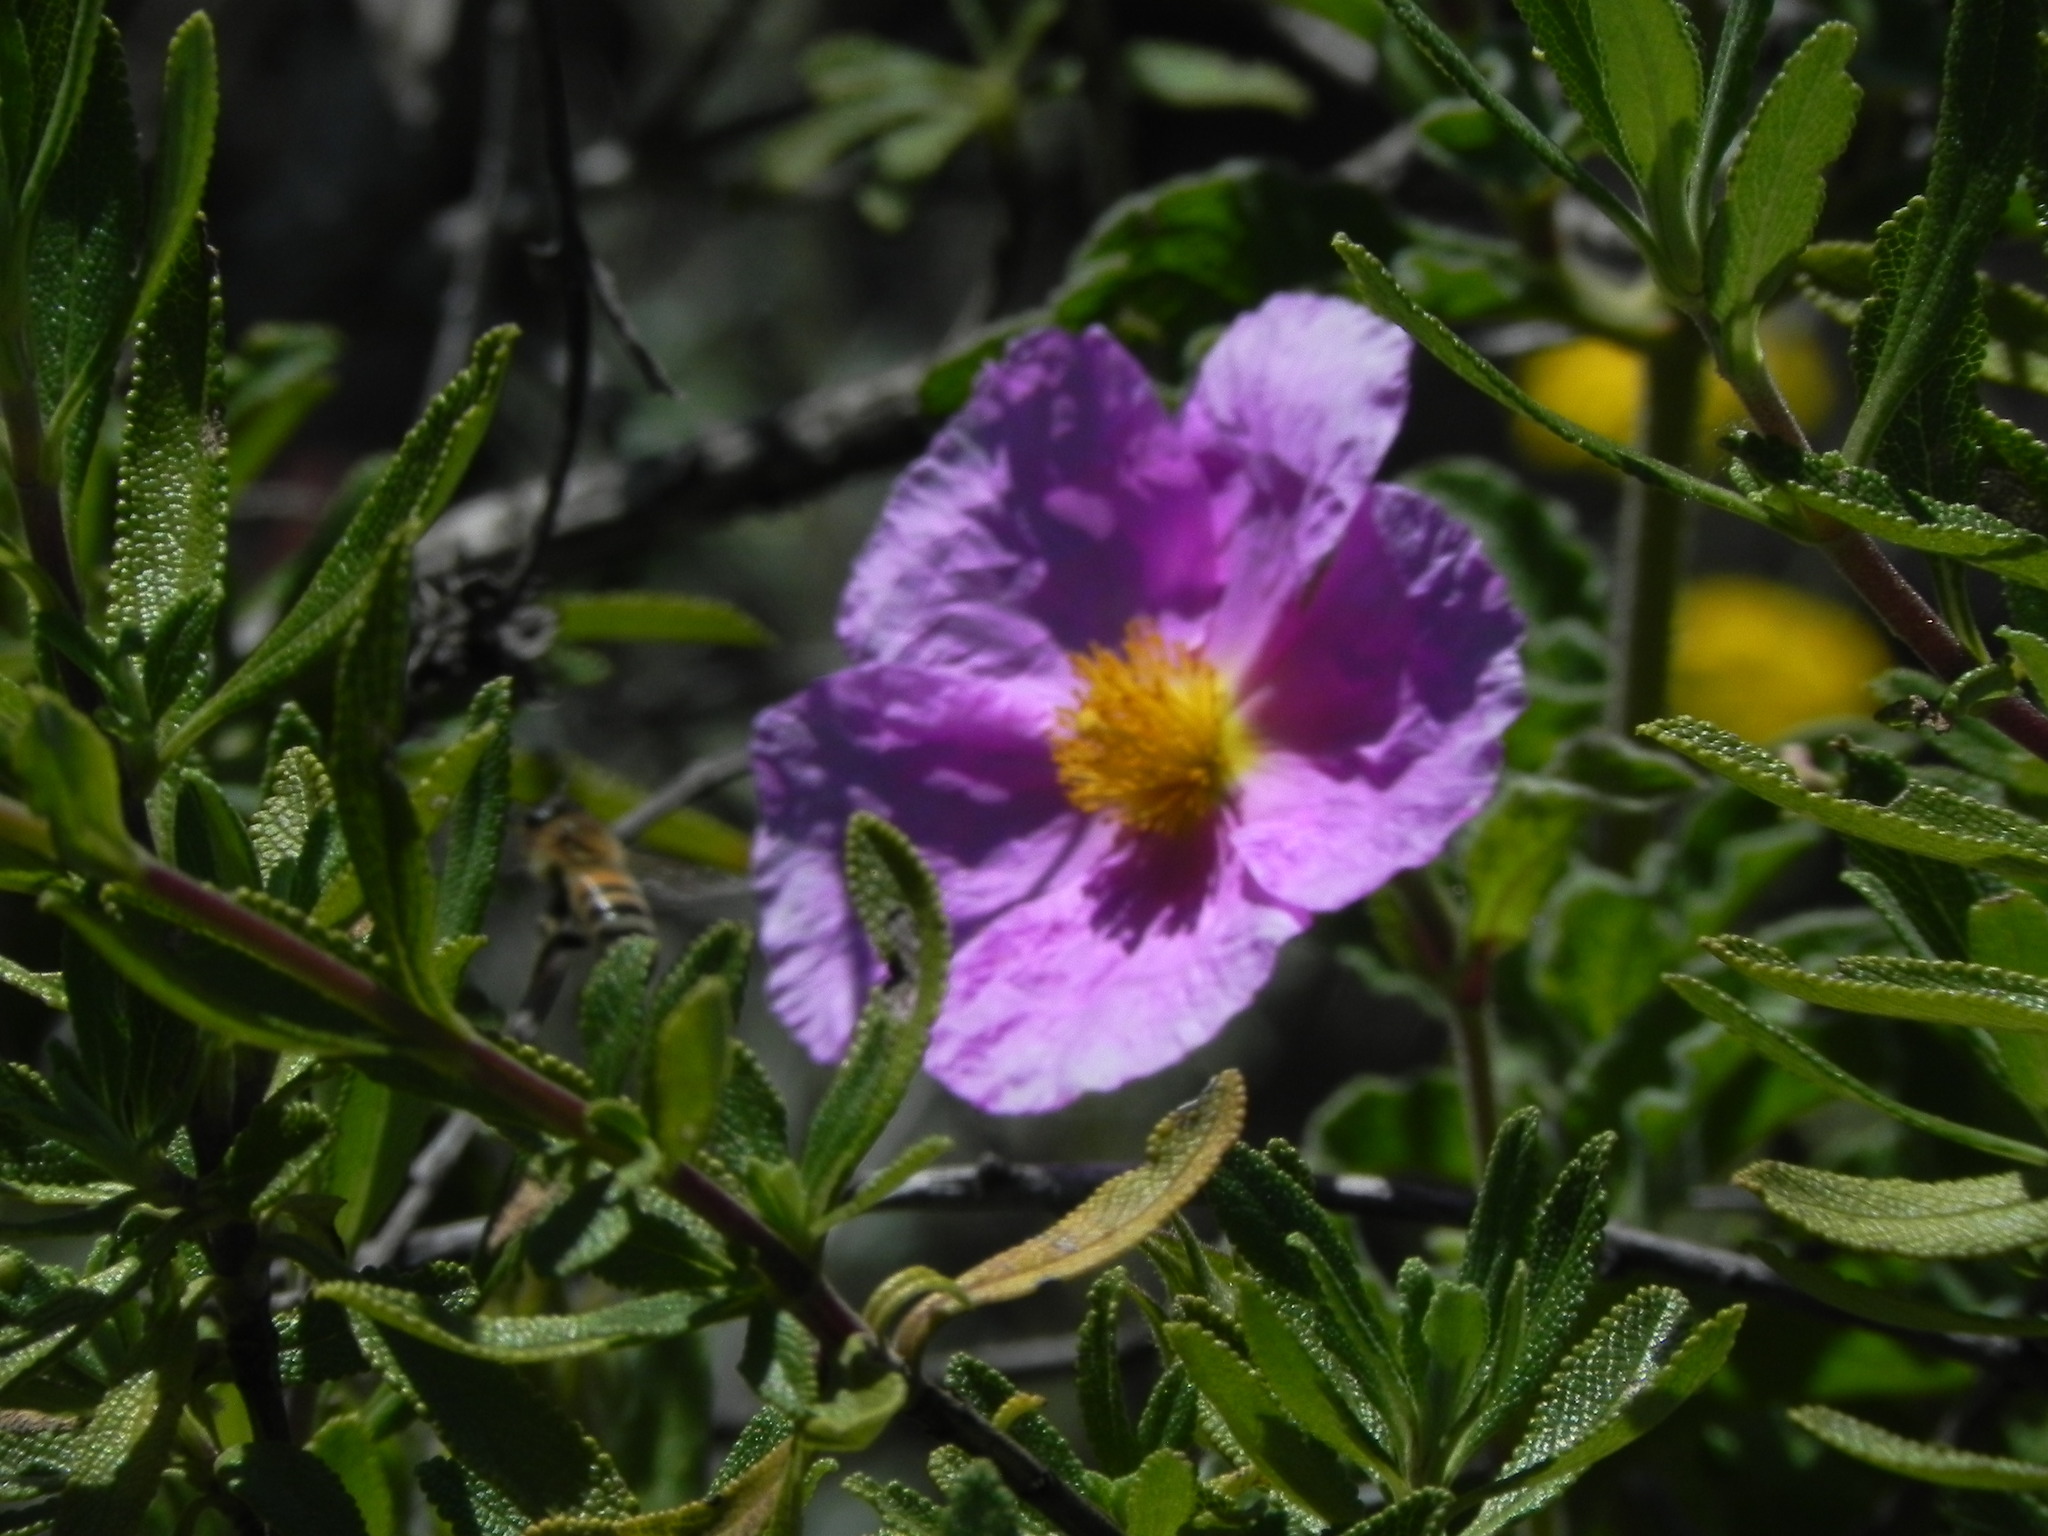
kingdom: Plantae
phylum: Tracheophyta
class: Magnoliopsida
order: Malvales
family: Cistaceae
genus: Cistus
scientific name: Cistus creticus
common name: Cretan rockrose
